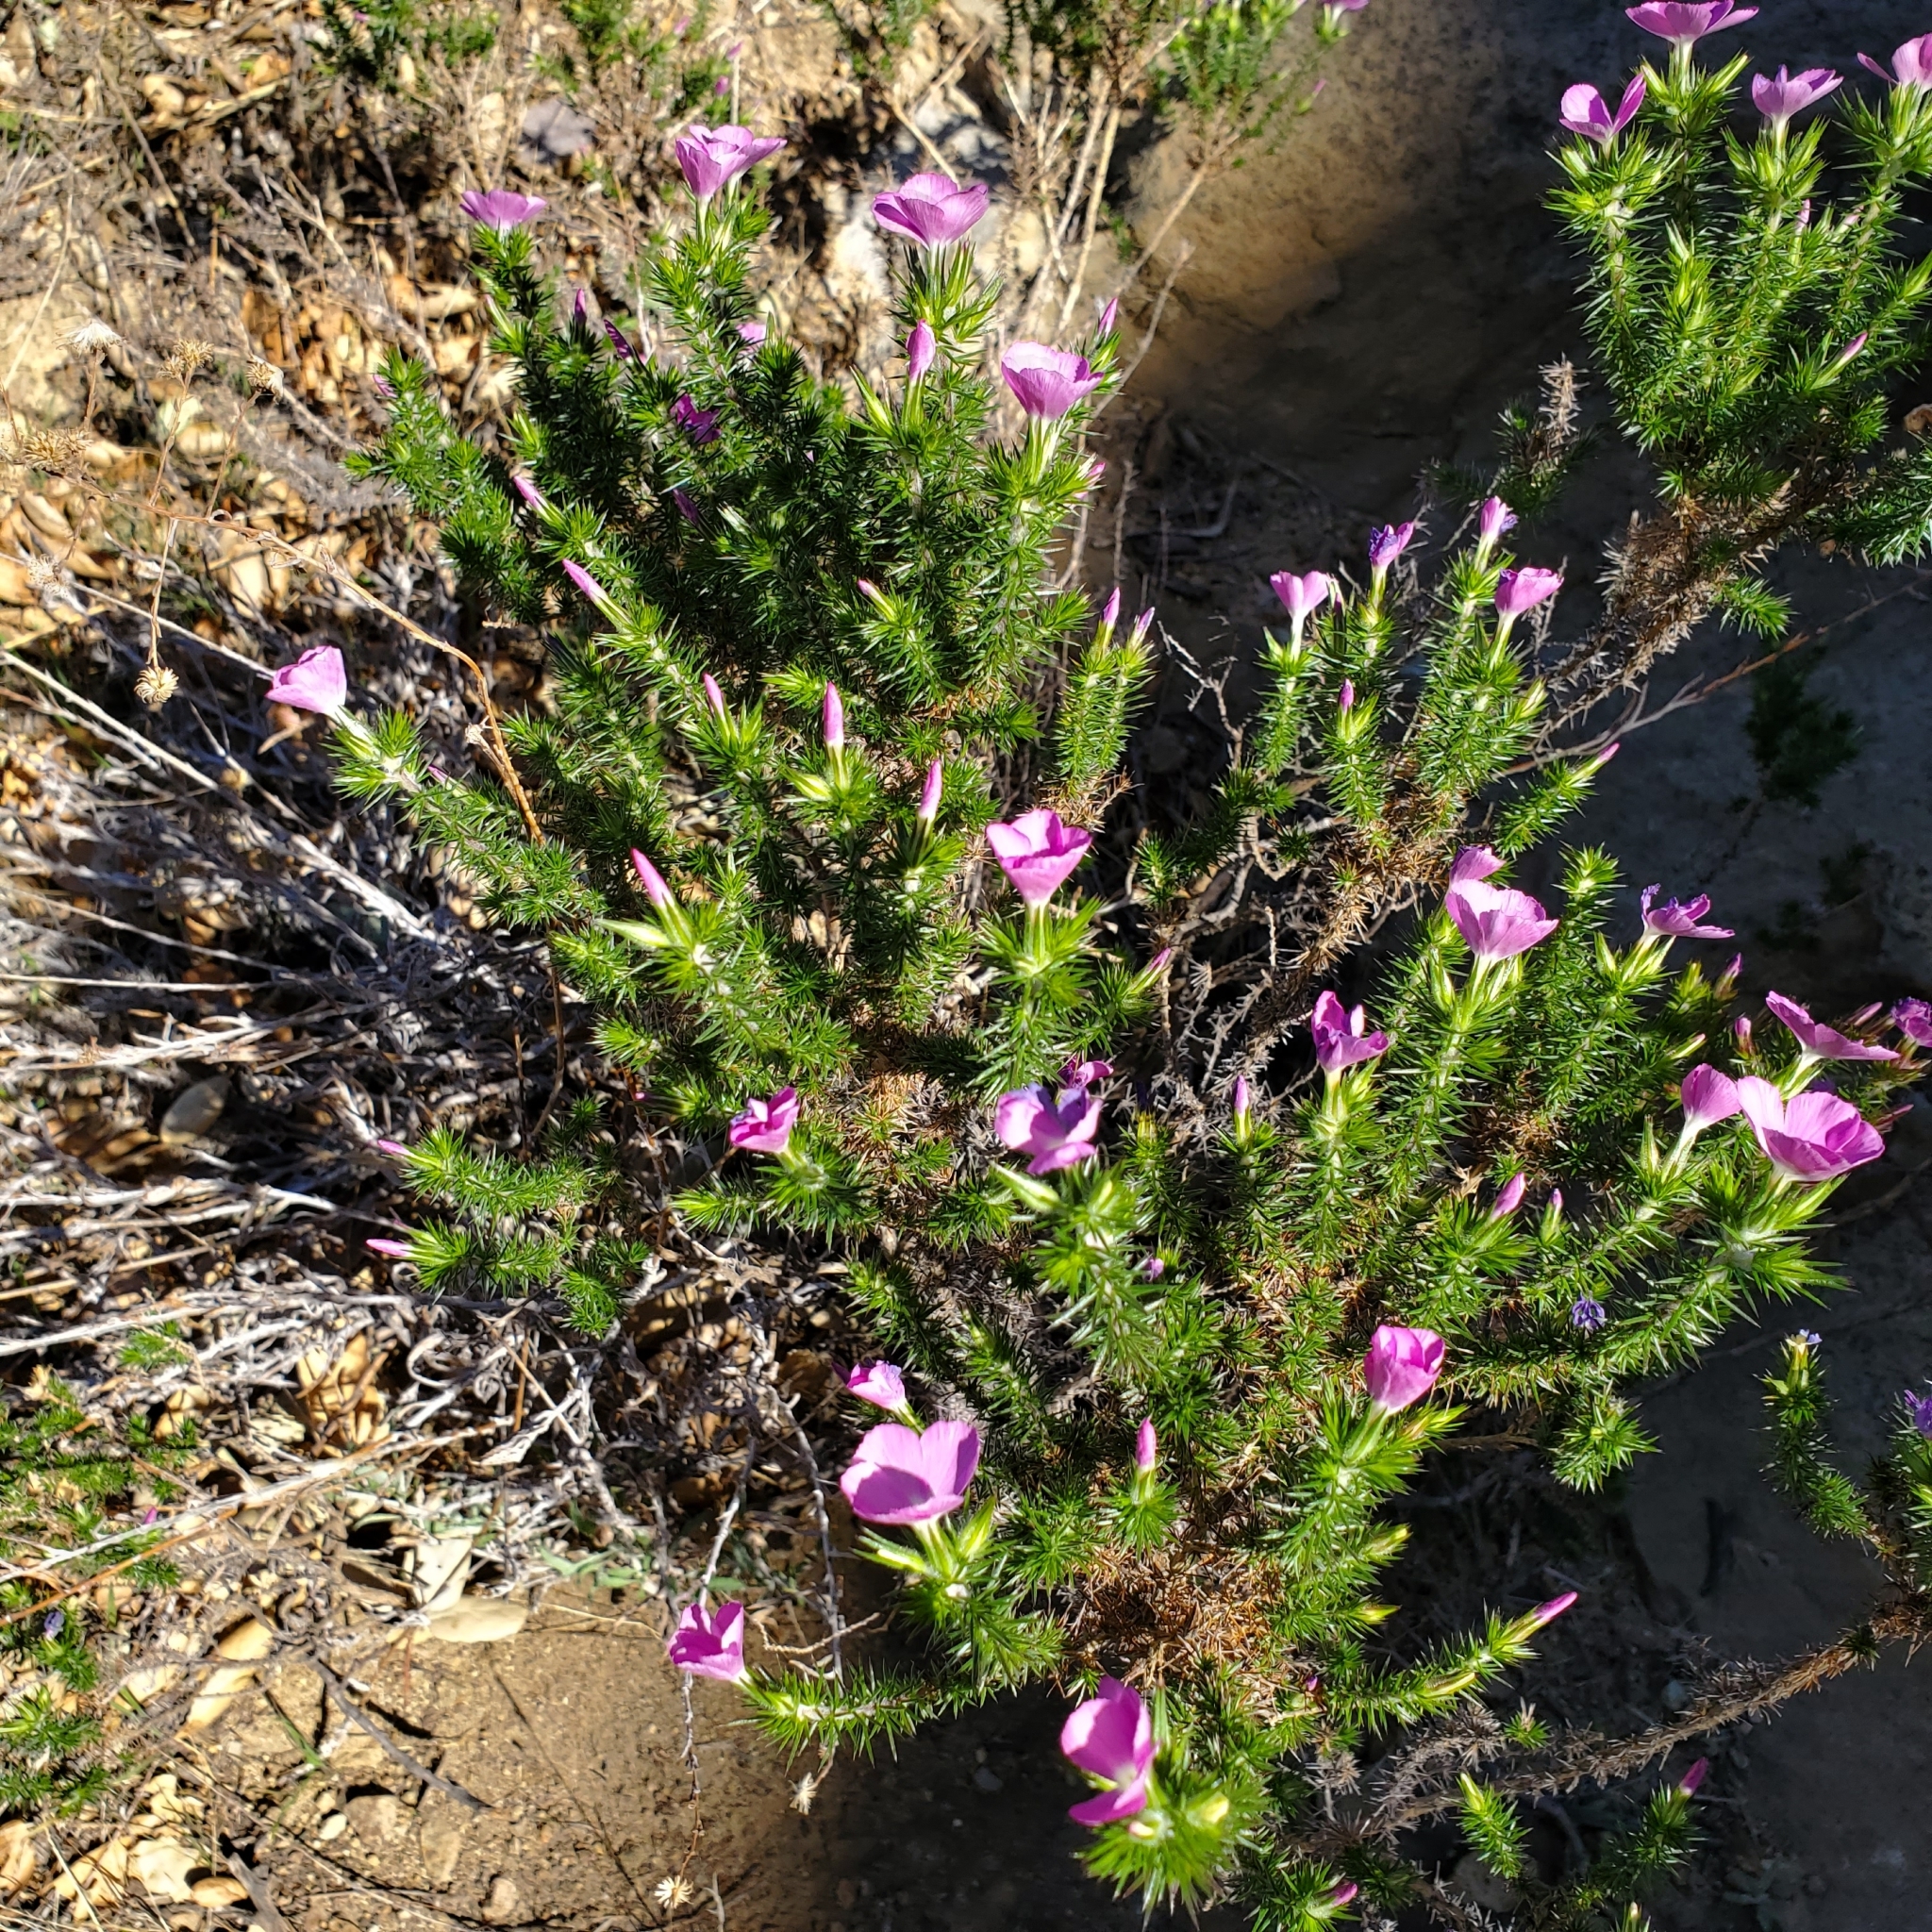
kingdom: Plantae
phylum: Tracheophyta
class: Magnoliopsida
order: Ericales
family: Polemoniaceae
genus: Linanthus
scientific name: Linanthus californicus
